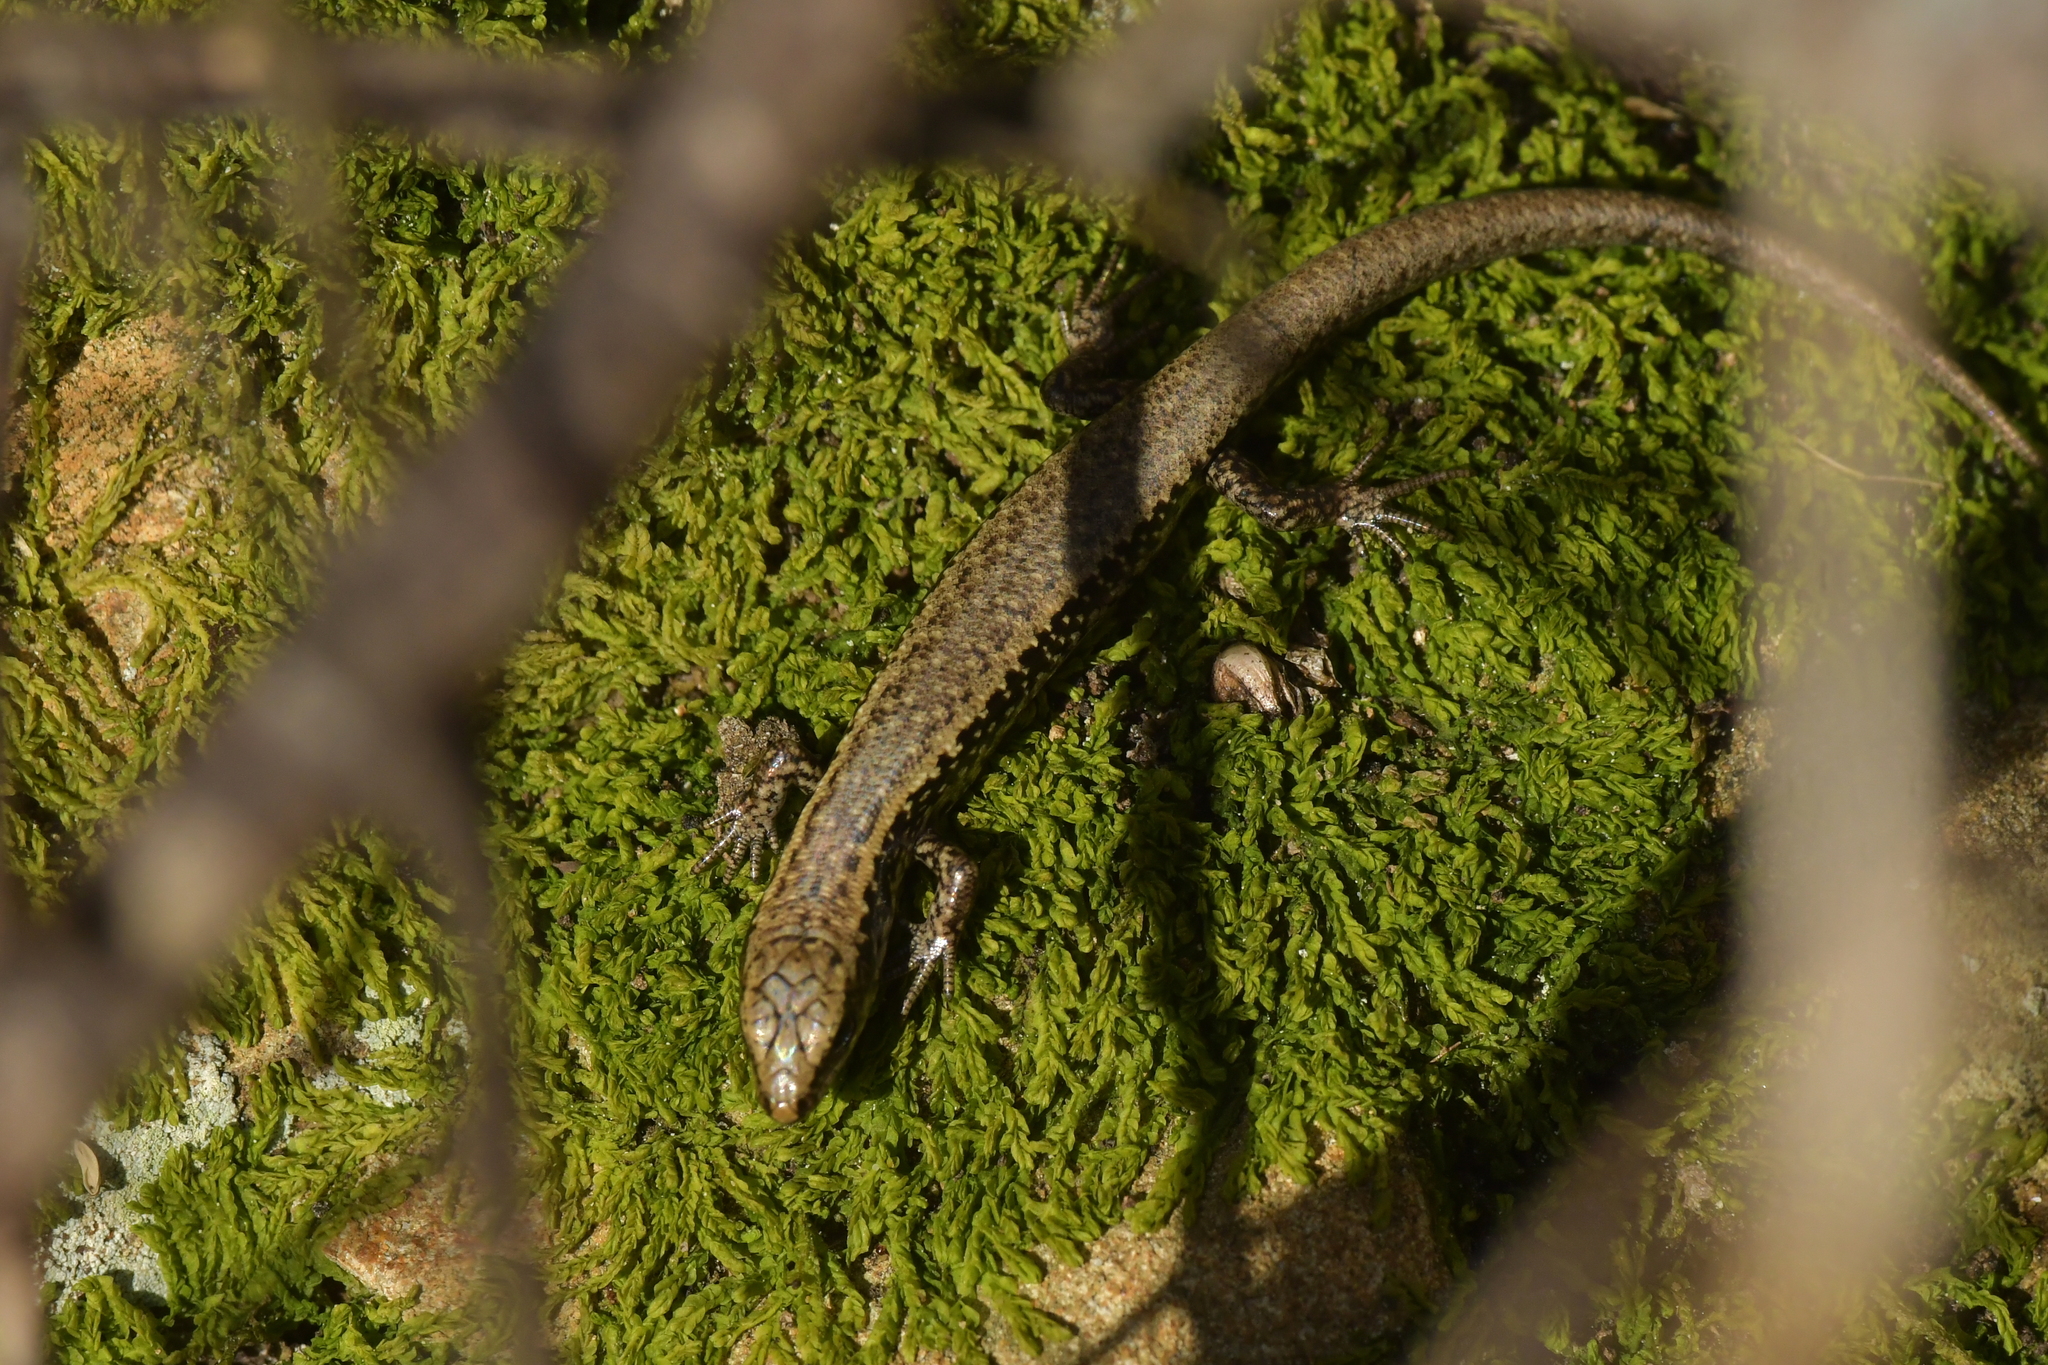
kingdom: Animalia
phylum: Chordata
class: Squamata
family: Scincidae
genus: Oligosoma
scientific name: Oligosoma kokowai
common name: Northern spotted skink
